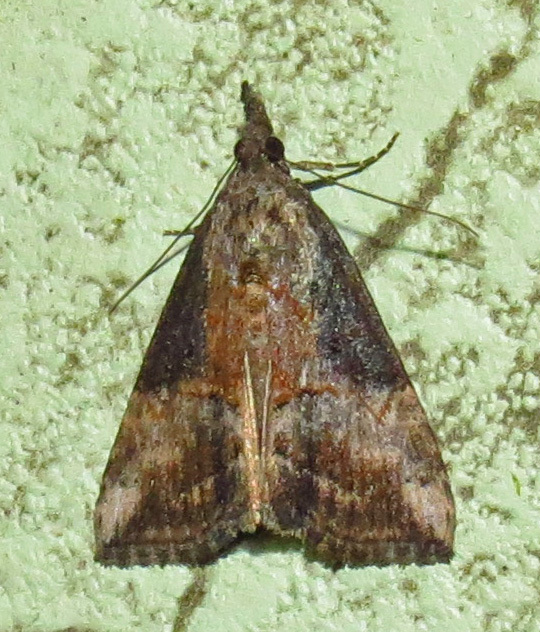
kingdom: Animalia
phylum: Arthropoda
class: Insecta
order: Lepidoptera
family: Erebidae
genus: Hypena
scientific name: Hypena scabra
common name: Green cloverworm
